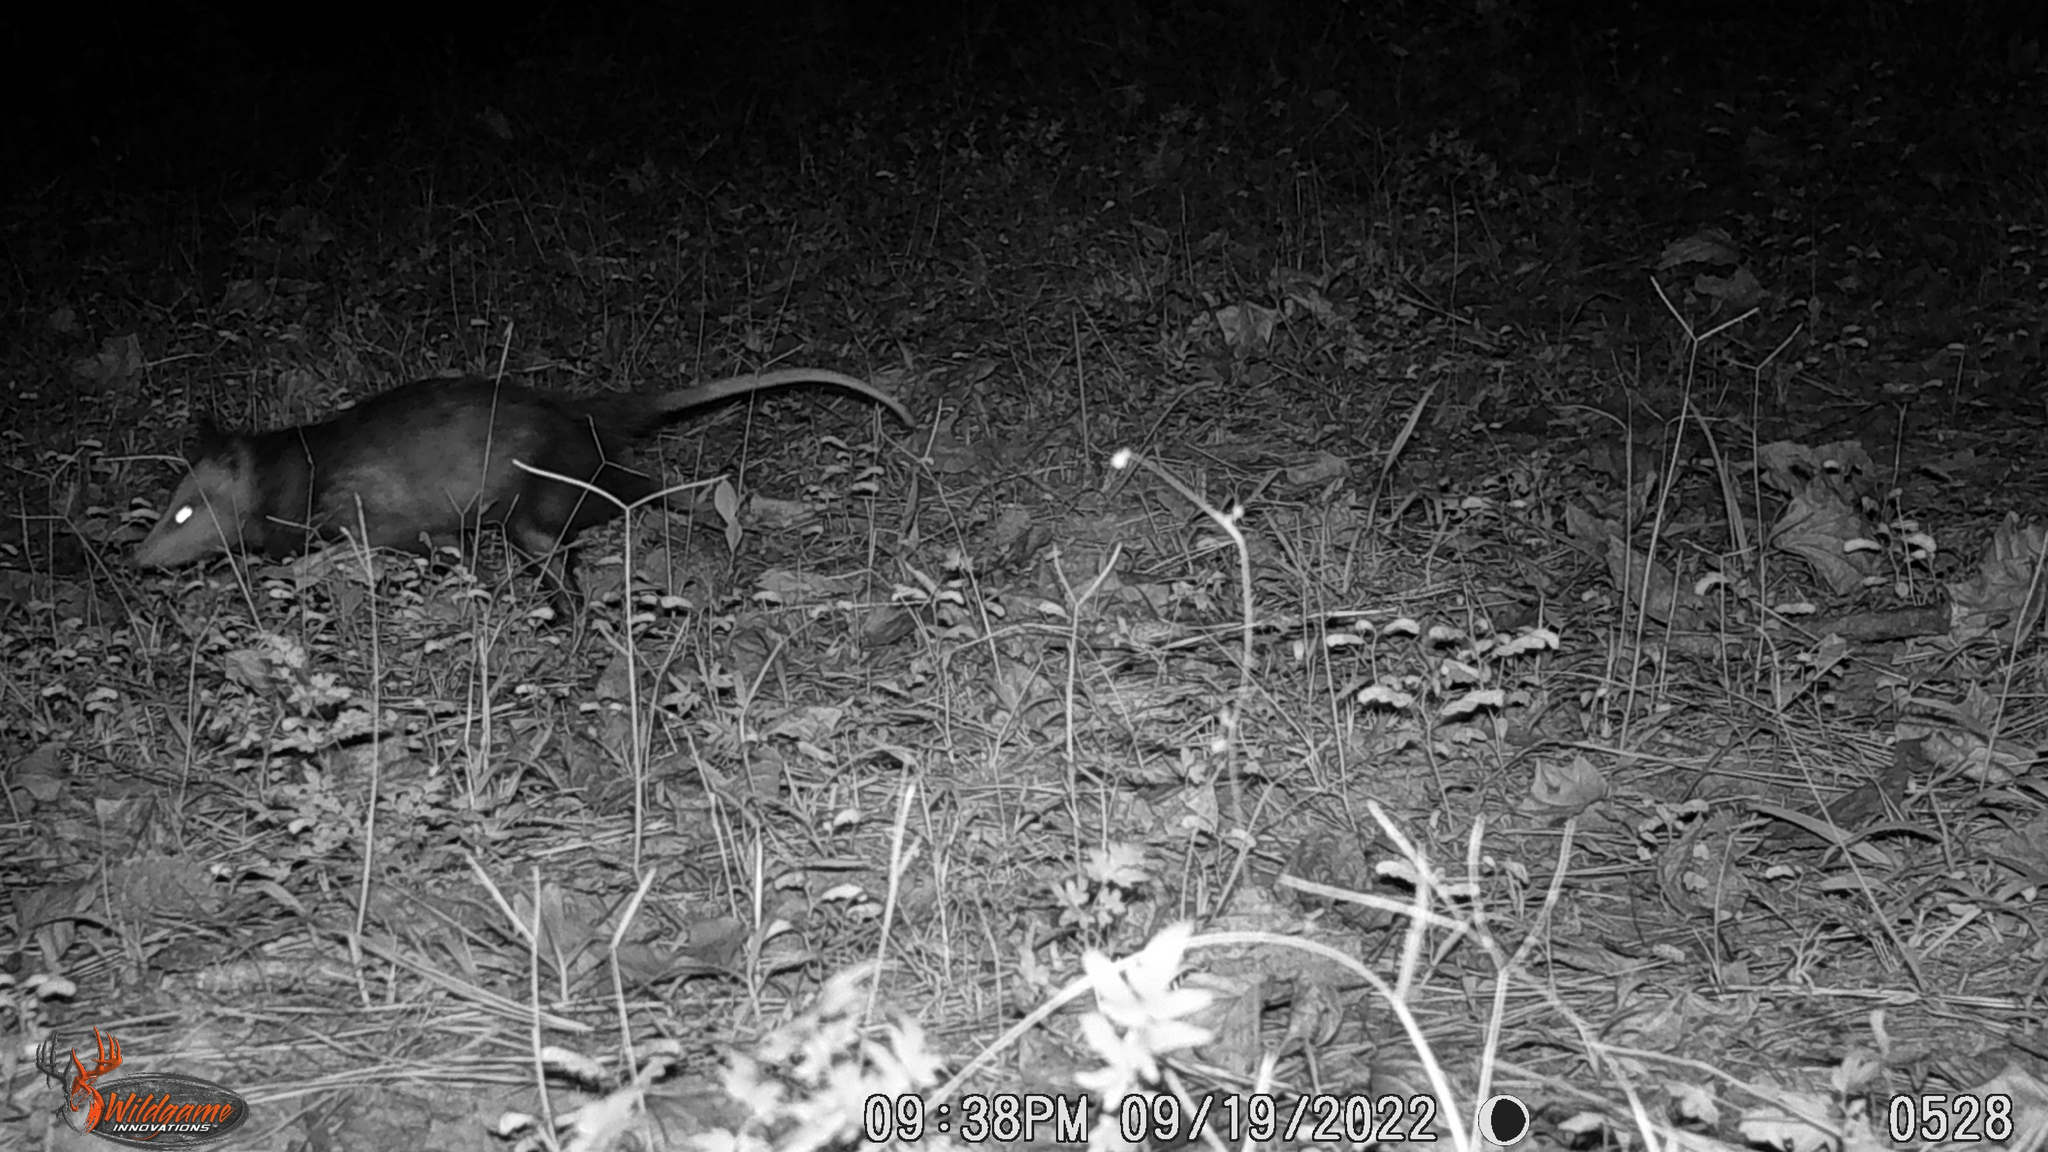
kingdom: Animalia
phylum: Chordata
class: Mammalia
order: Didelphimorphia
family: Didelphidae
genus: Didelphis
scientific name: Didelphis virginiana
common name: Virginia opossum
